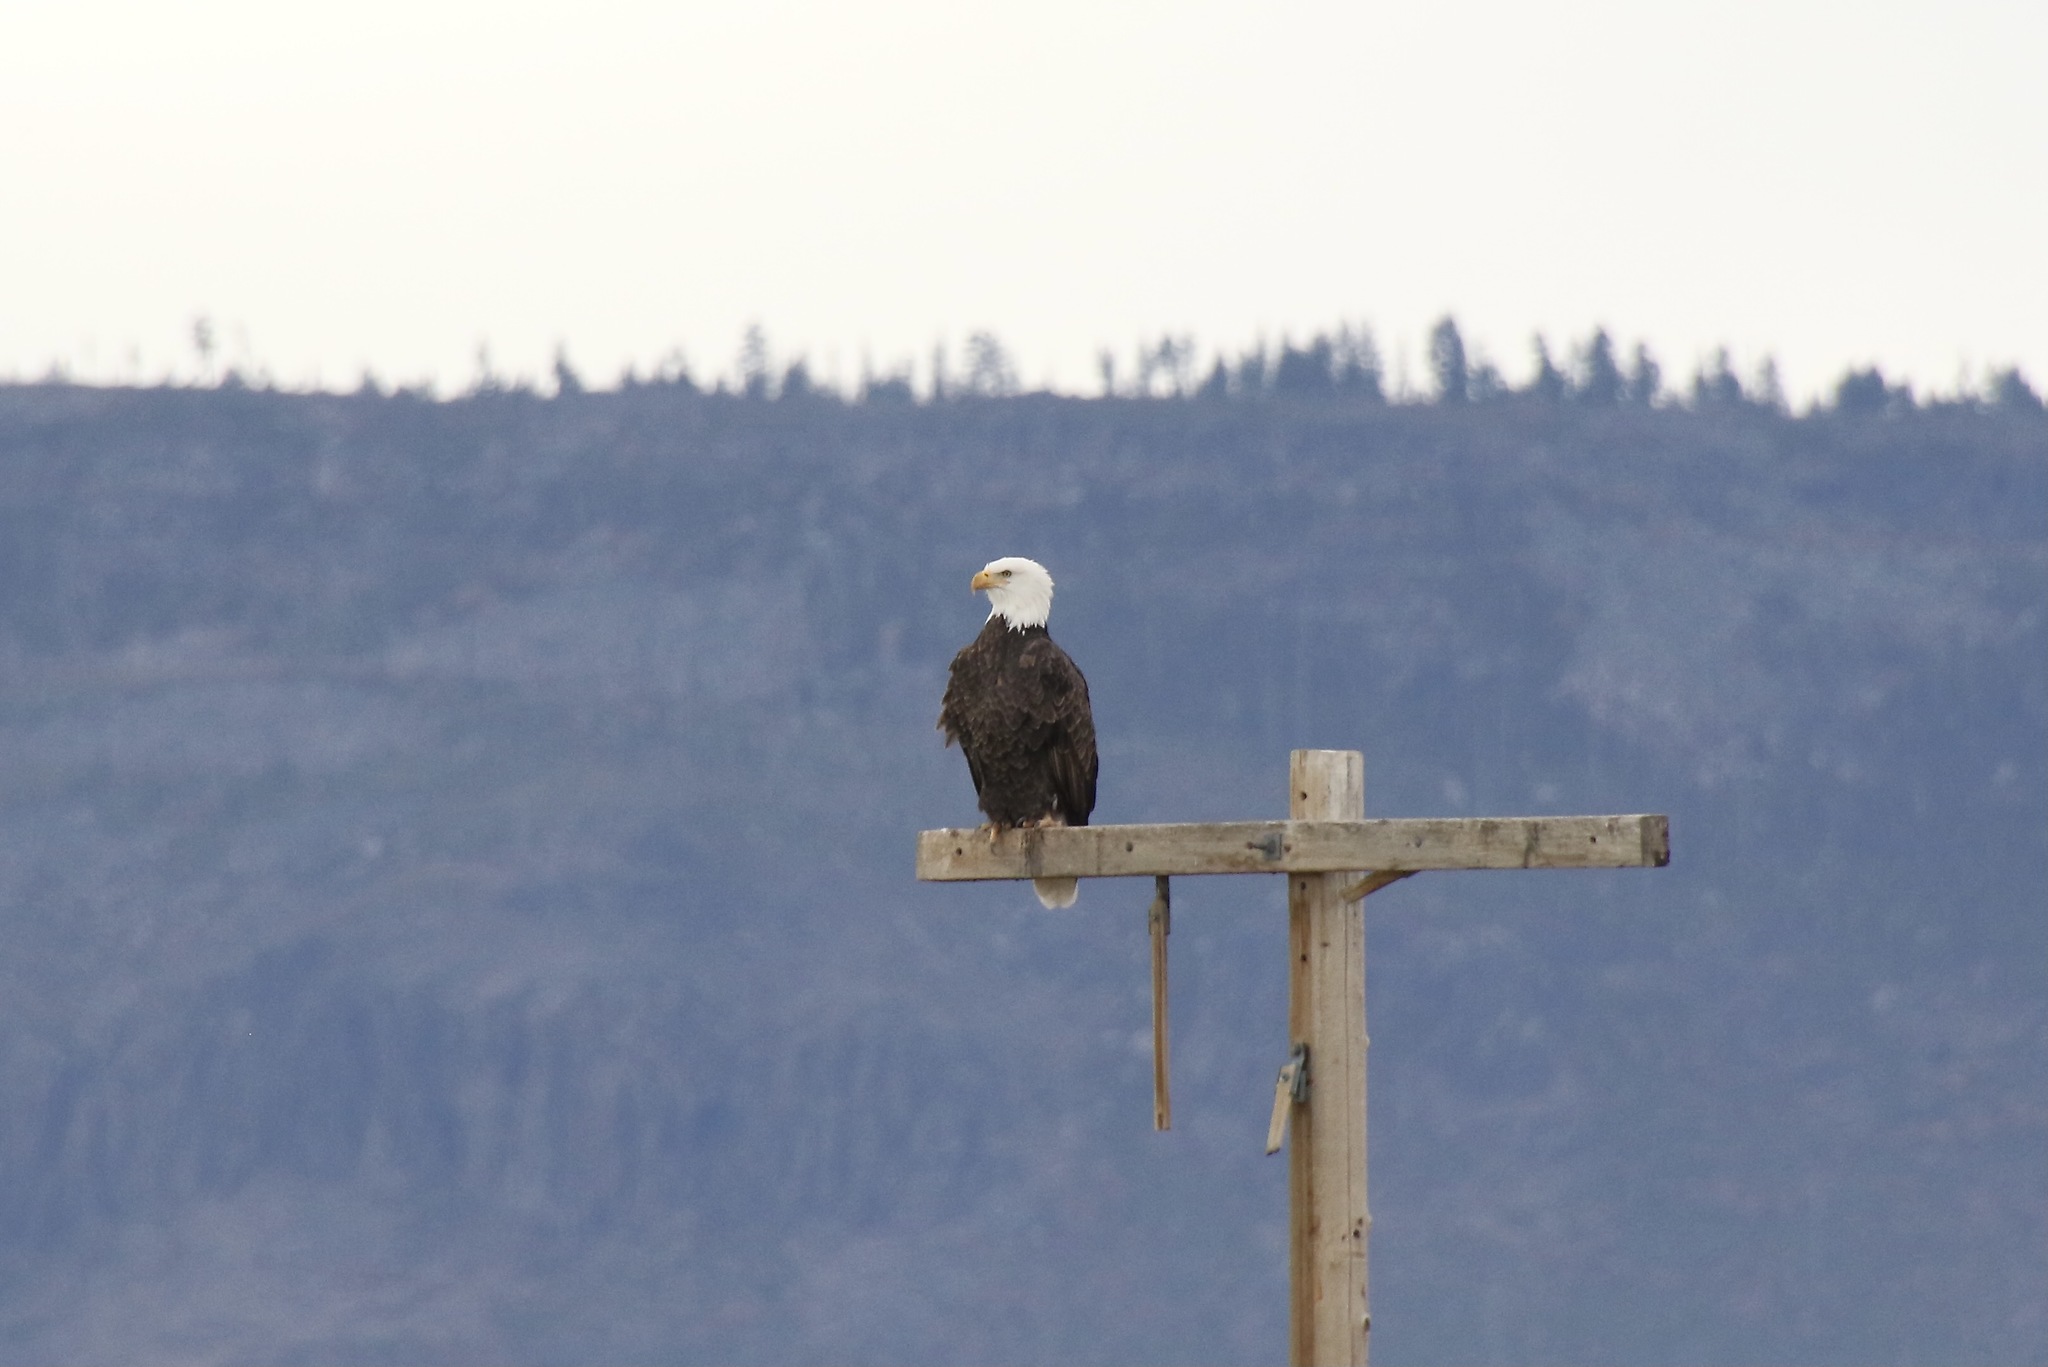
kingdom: Animalia
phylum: Chordata
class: Aves
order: Accipitriformes
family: Accipitridae
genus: Haliaeetus
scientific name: Haliaeetus leucocephalus
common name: Bald eagle
